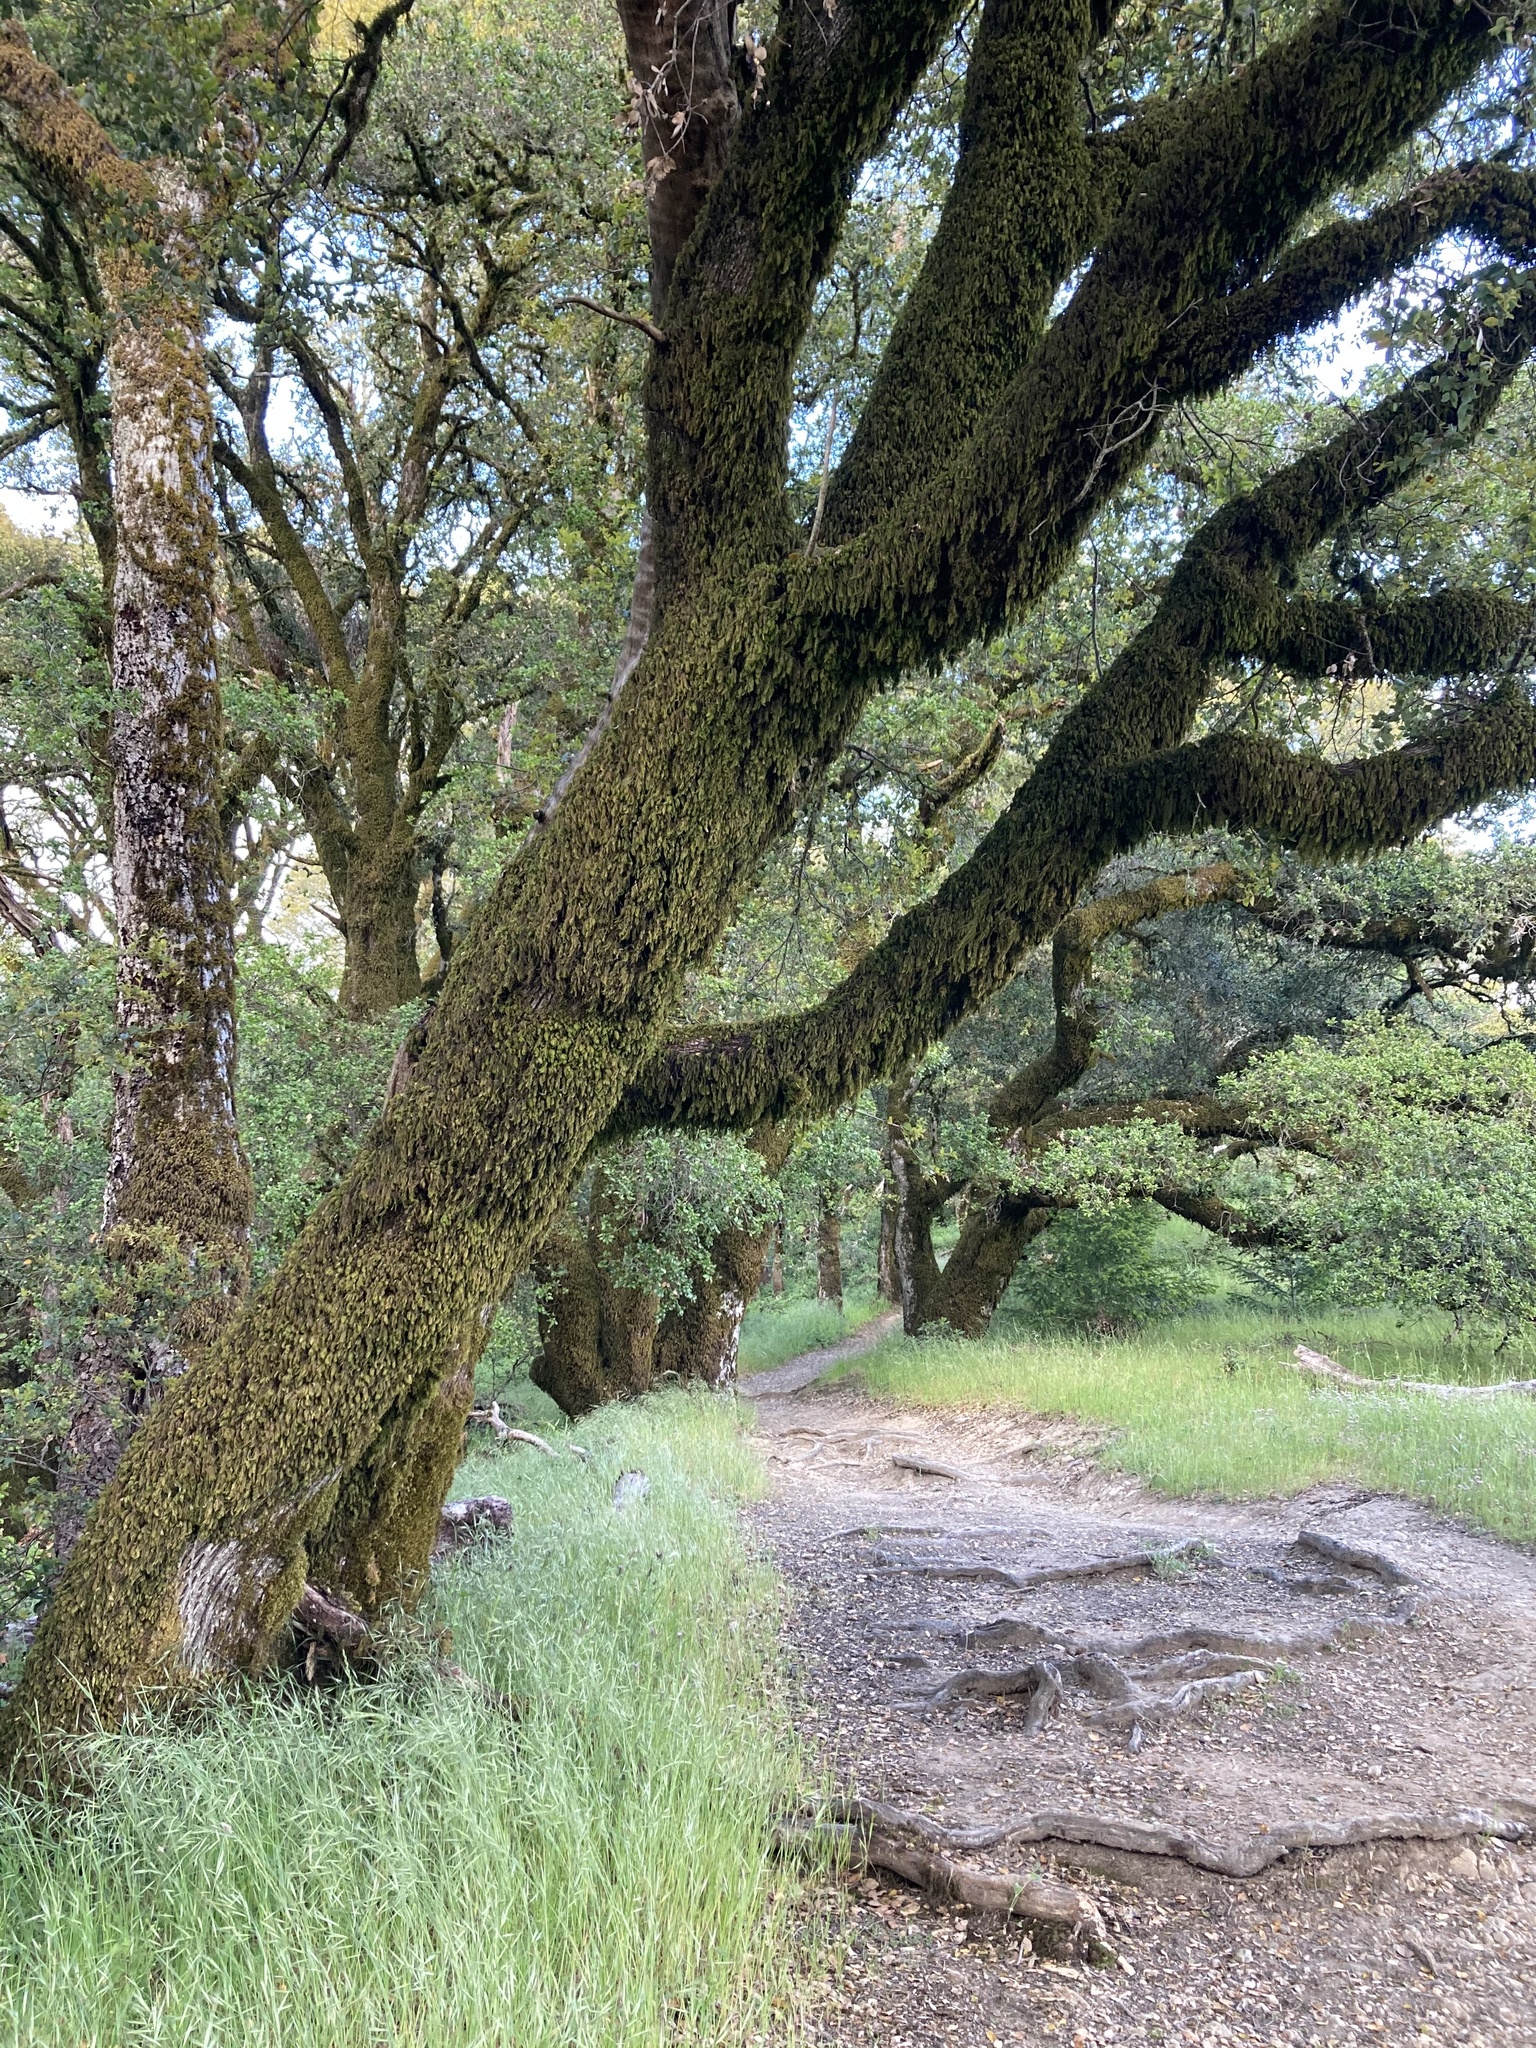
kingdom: Plantae
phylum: Tracheophyta
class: Magnoliopsida
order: Fagales
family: Fagaceae
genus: Quercus
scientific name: Quercus chrysolepis
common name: Canyon live oak
